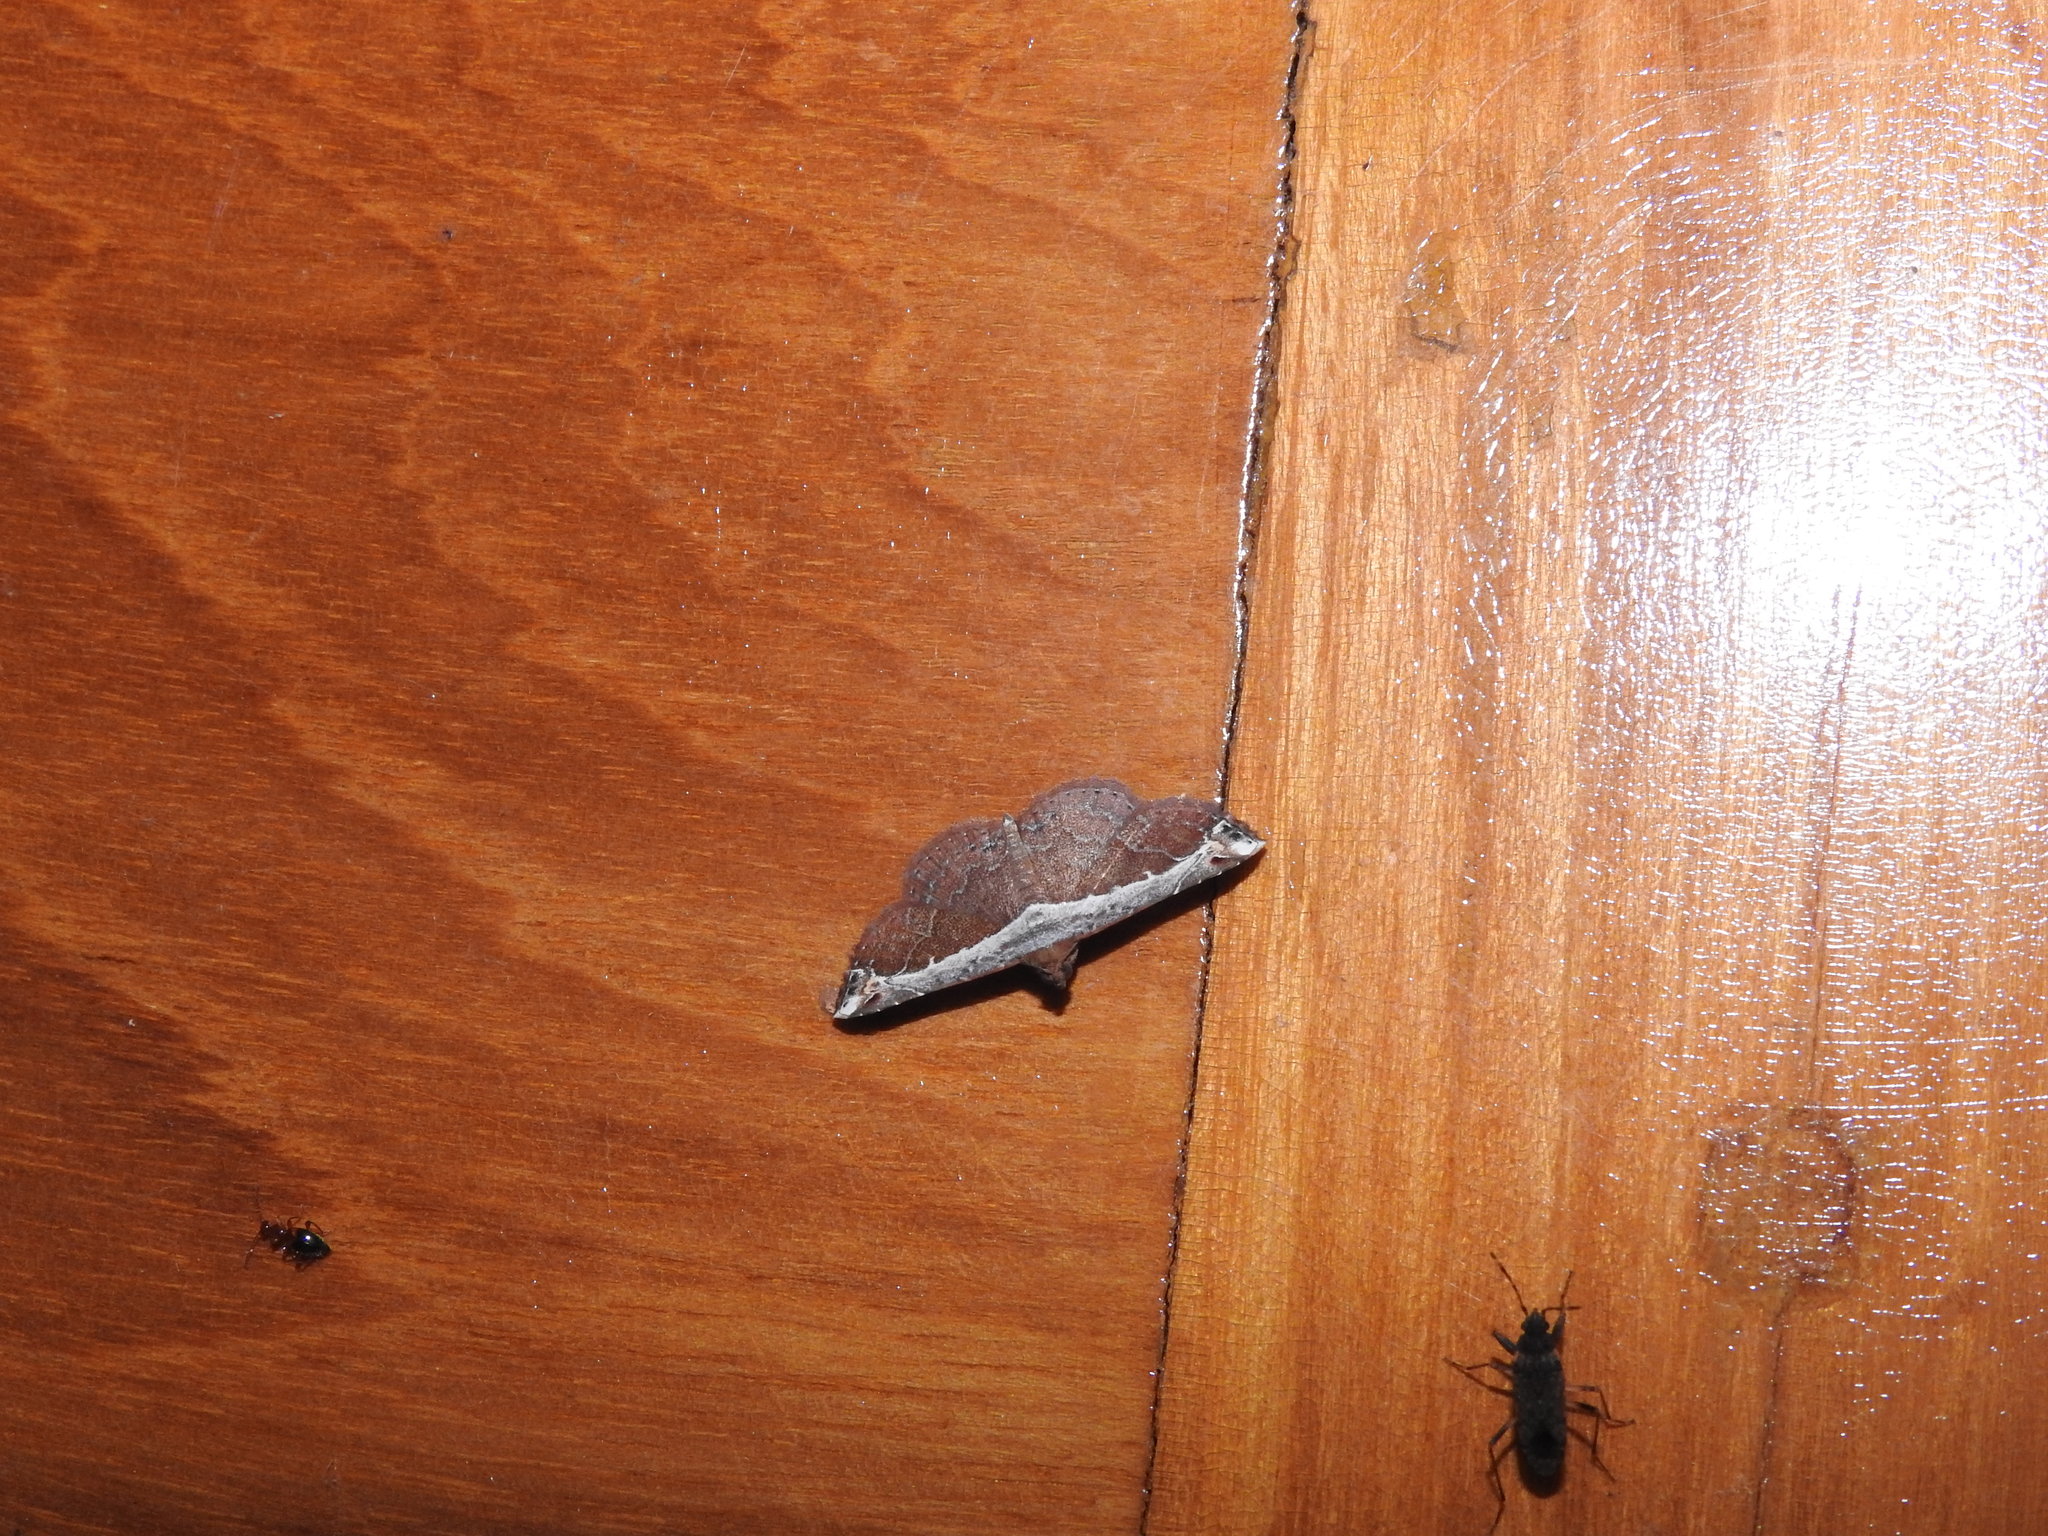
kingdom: Animalia
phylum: Arthropoda
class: Insecta
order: Lepidoptera
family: Erebidae
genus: Zurobata
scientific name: Zurobata vacillans
